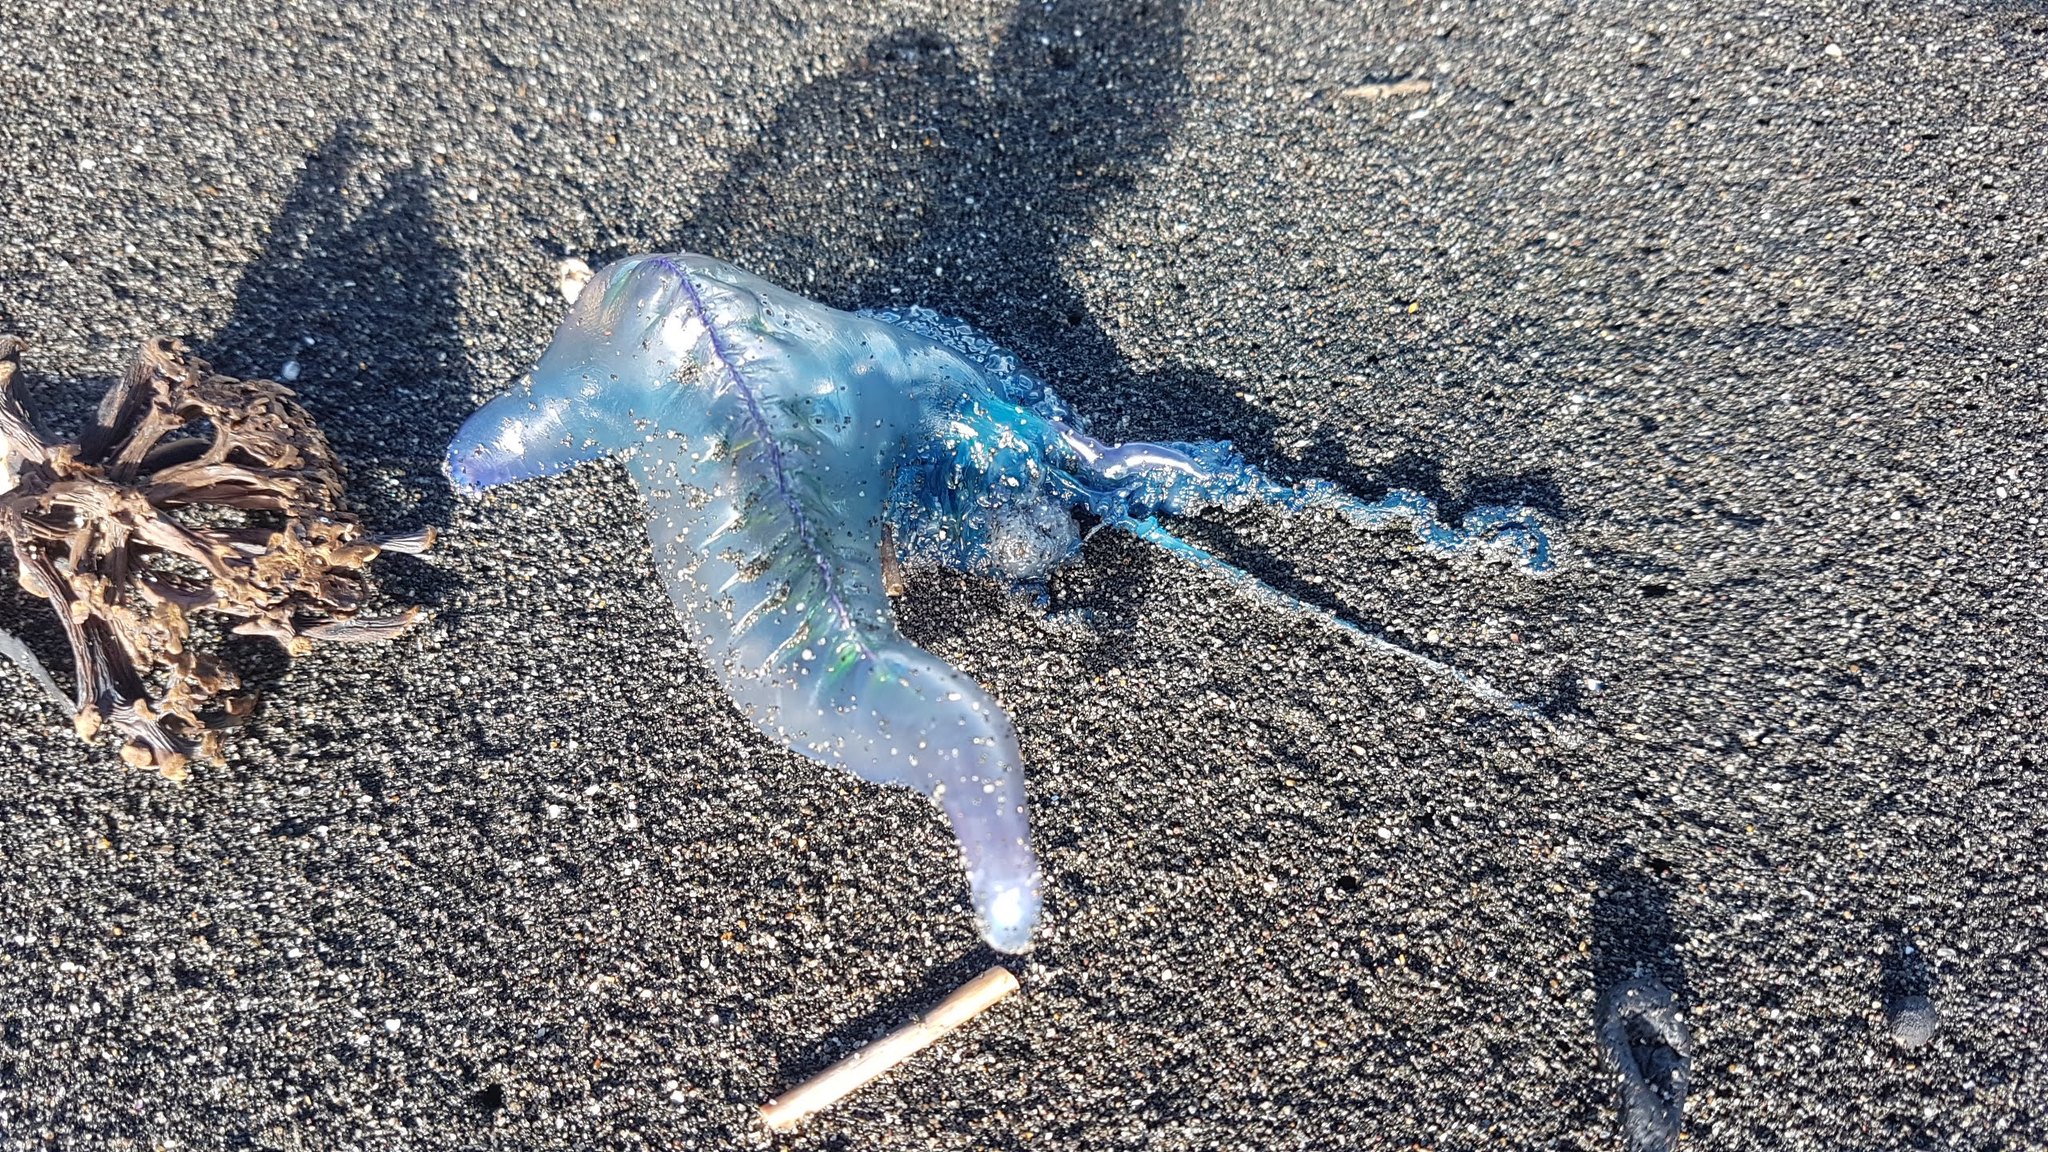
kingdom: Animalia
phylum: Cnidaria
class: Hydrozoa
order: Siphonophorae
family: Physaliidae
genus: Physalia
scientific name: Physalia physalis
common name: Portuguese man-of-war
